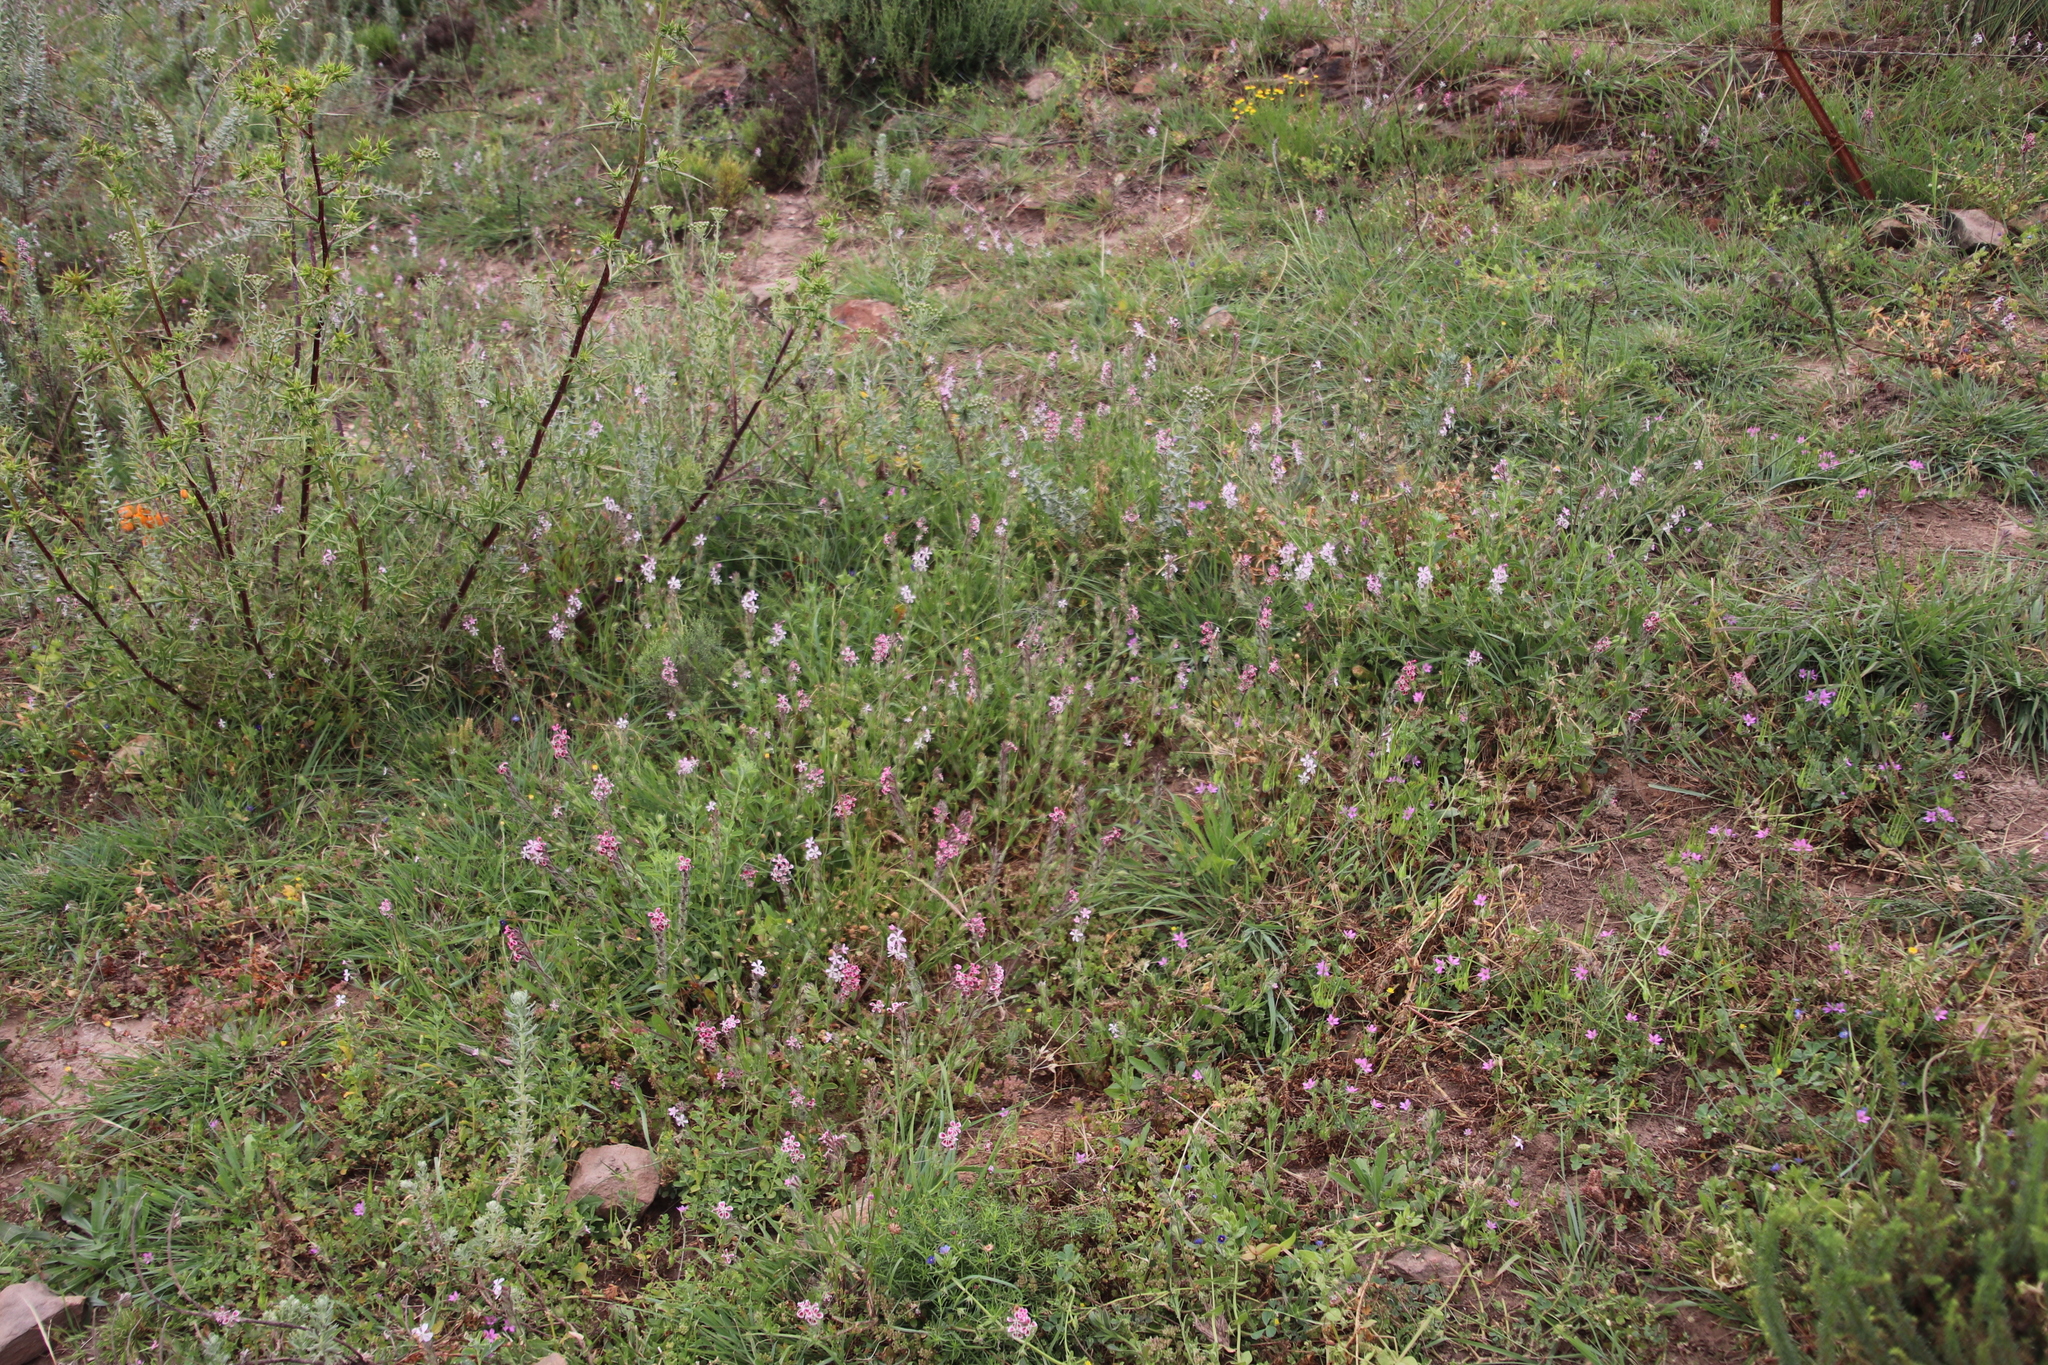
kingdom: Plantae
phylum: Tracheophyta
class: Magnoliopsida
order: Caryophyllales
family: Caryophyllaceae
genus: Silene
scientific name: Silene gallica
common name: Small-flowered catchfly
